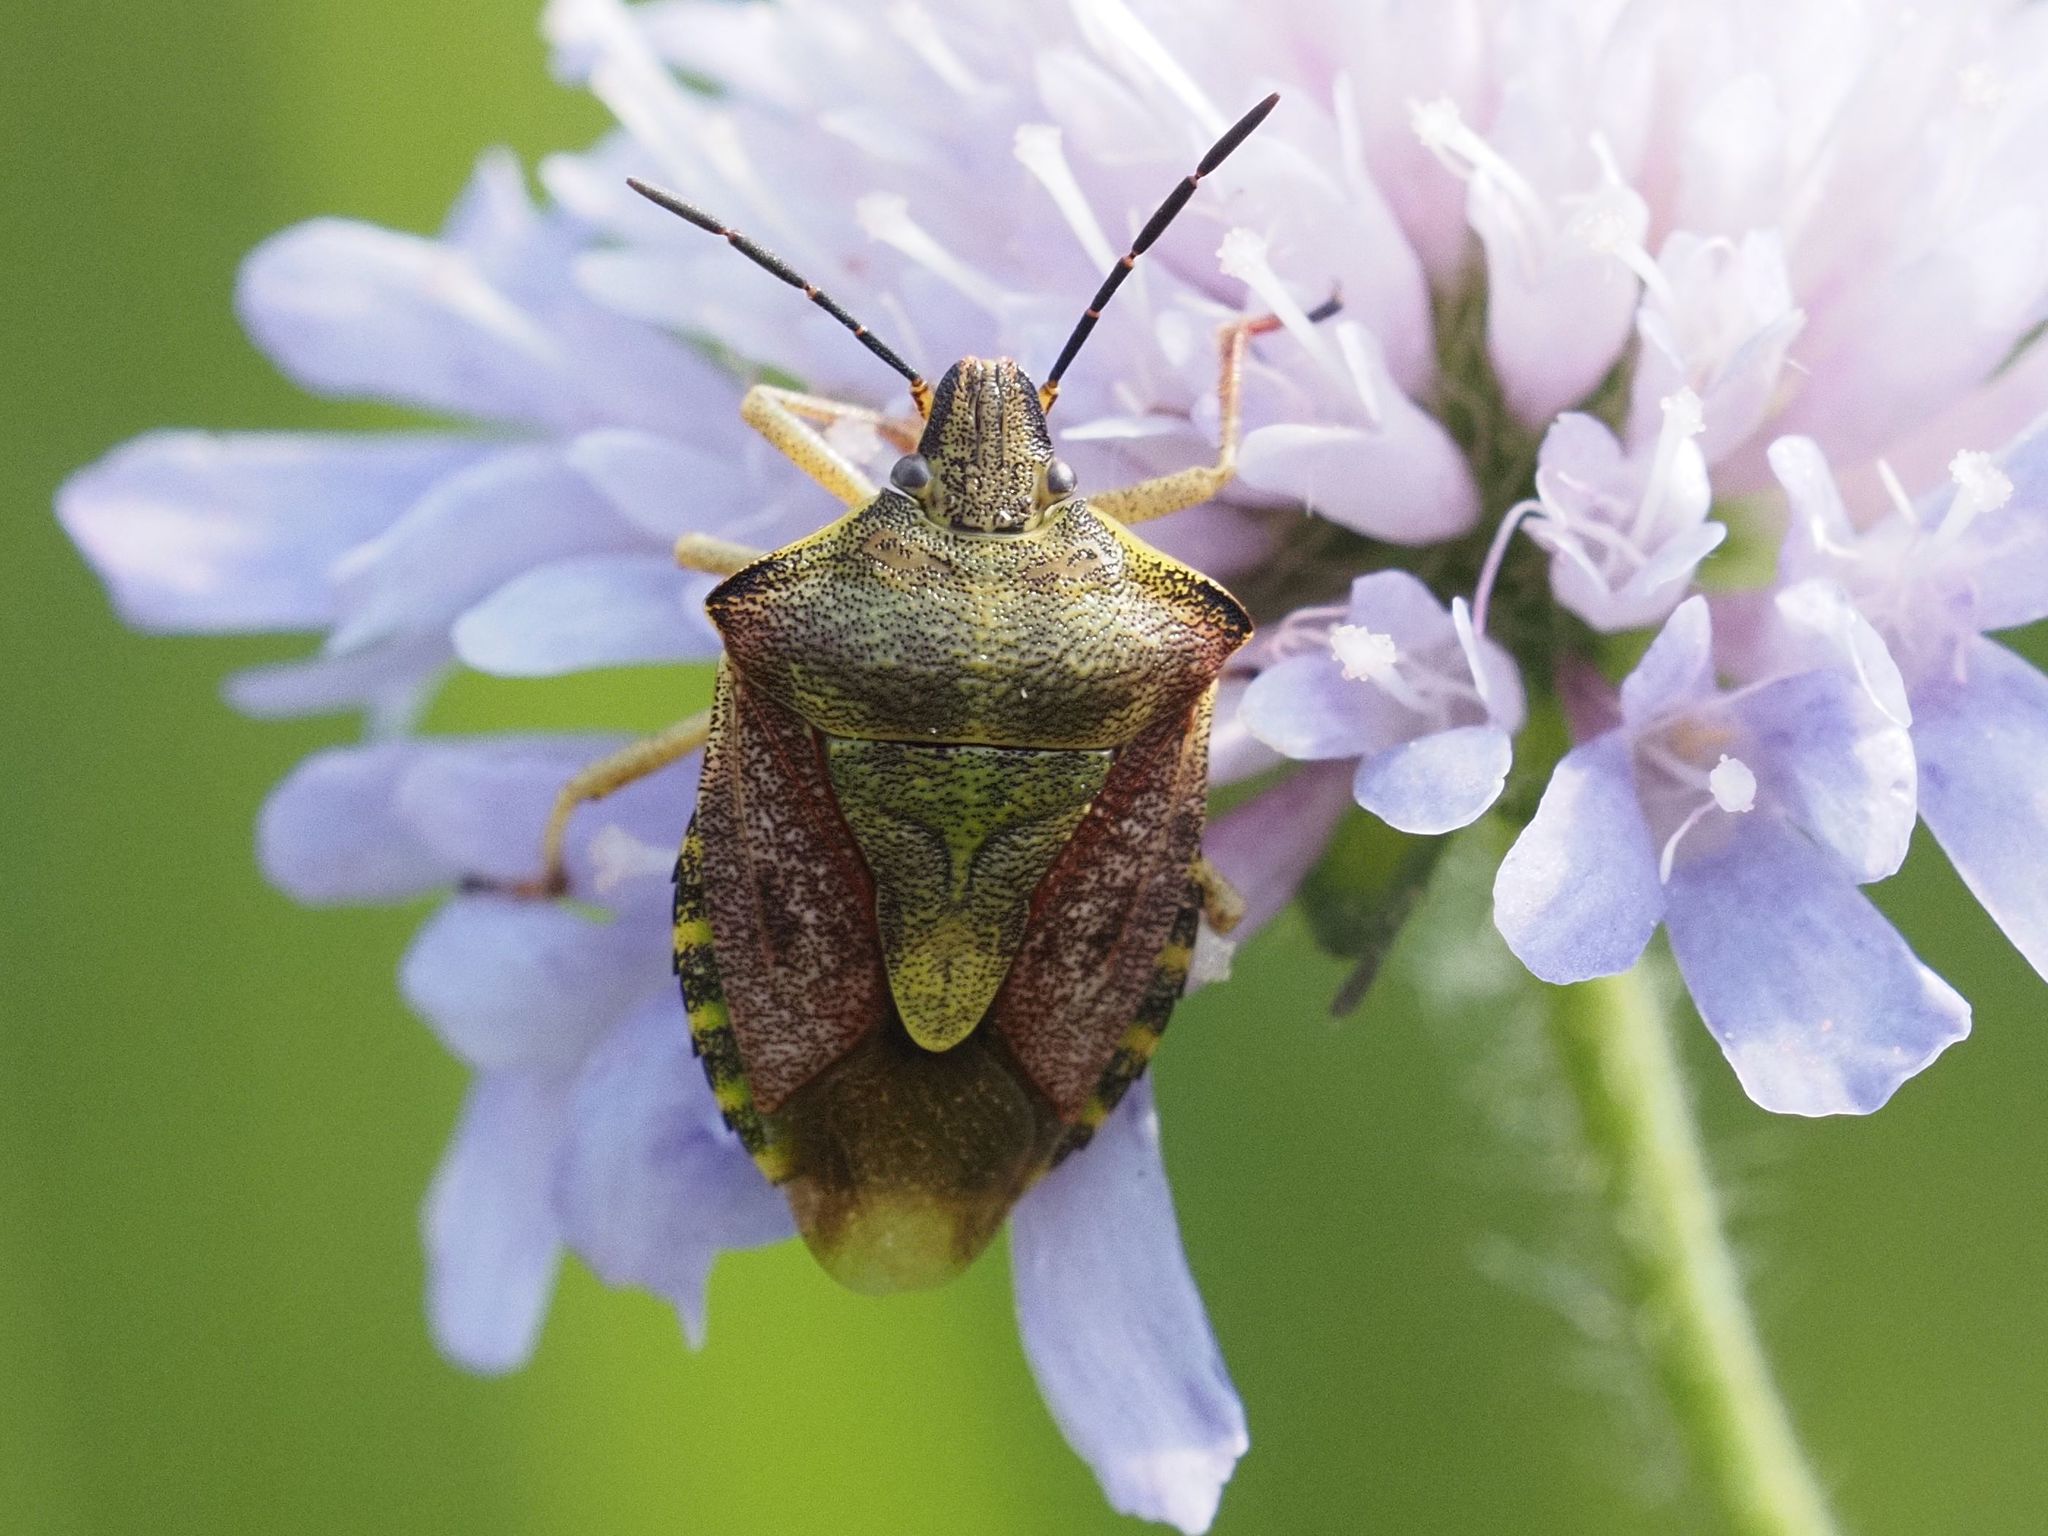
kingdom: Animalia
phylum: Arthropoda
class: Insecta
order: Hemiptera
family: Pentatomidae
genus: Carpocoris
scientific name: Carpocoris purpureipennis
